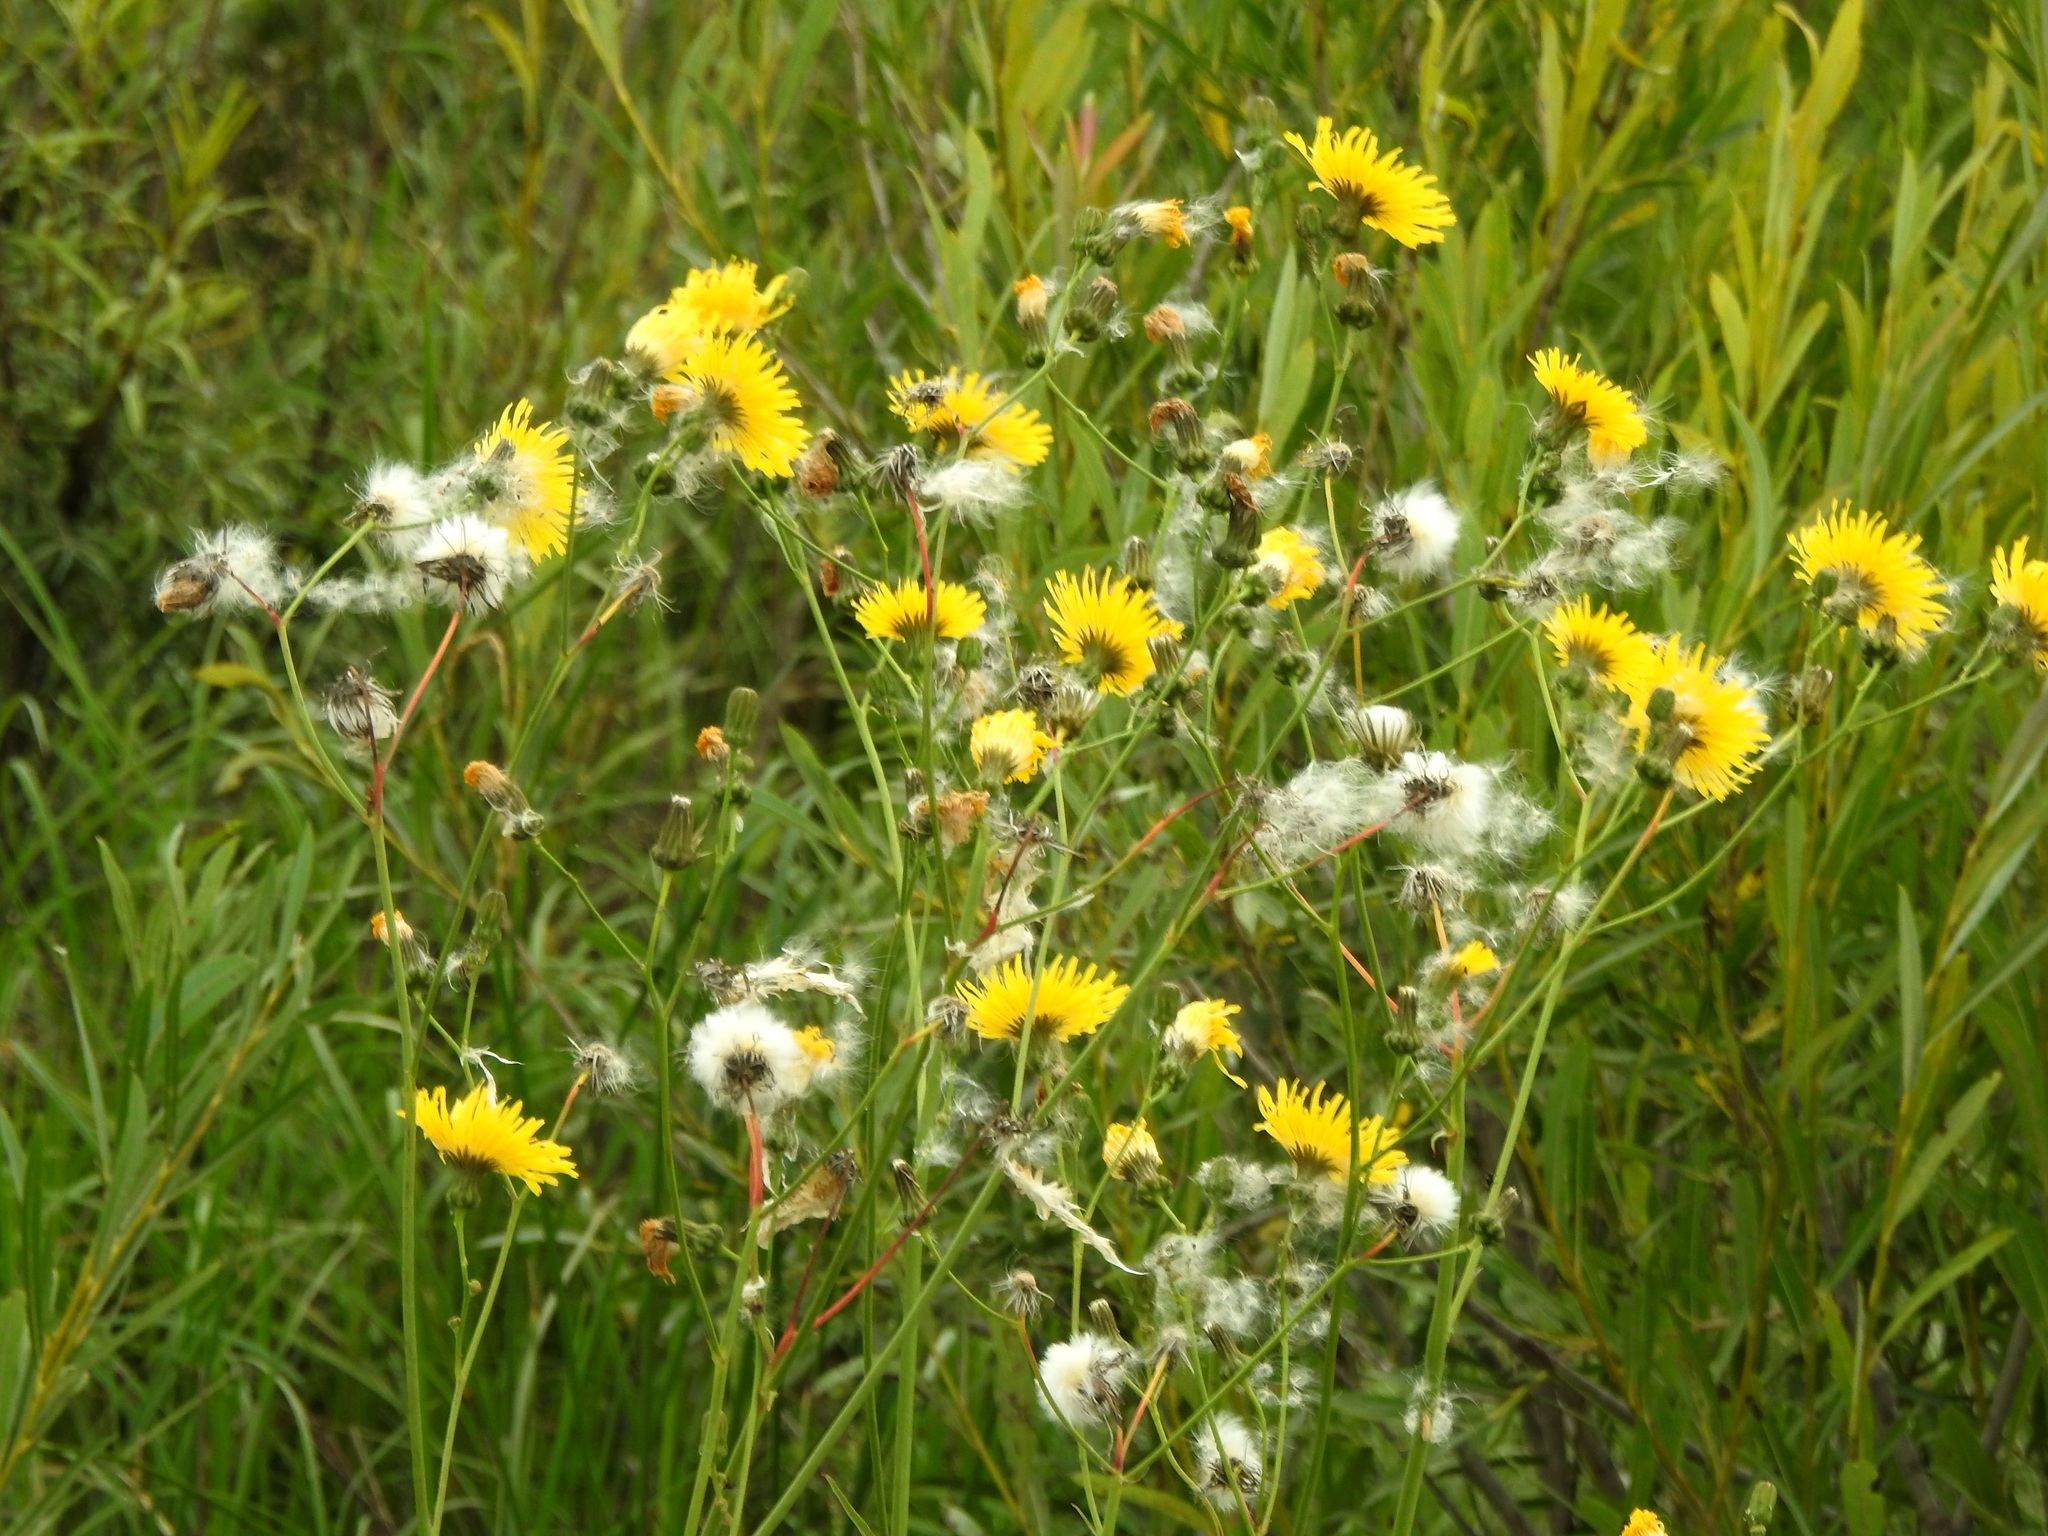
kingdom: Plantae
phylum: Tracheophyta
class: Magnoliopsida
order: Asterales
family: Asteraceae
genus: Sonchus
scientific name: Sonchus arvensis
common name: Perennial sow-thistle
